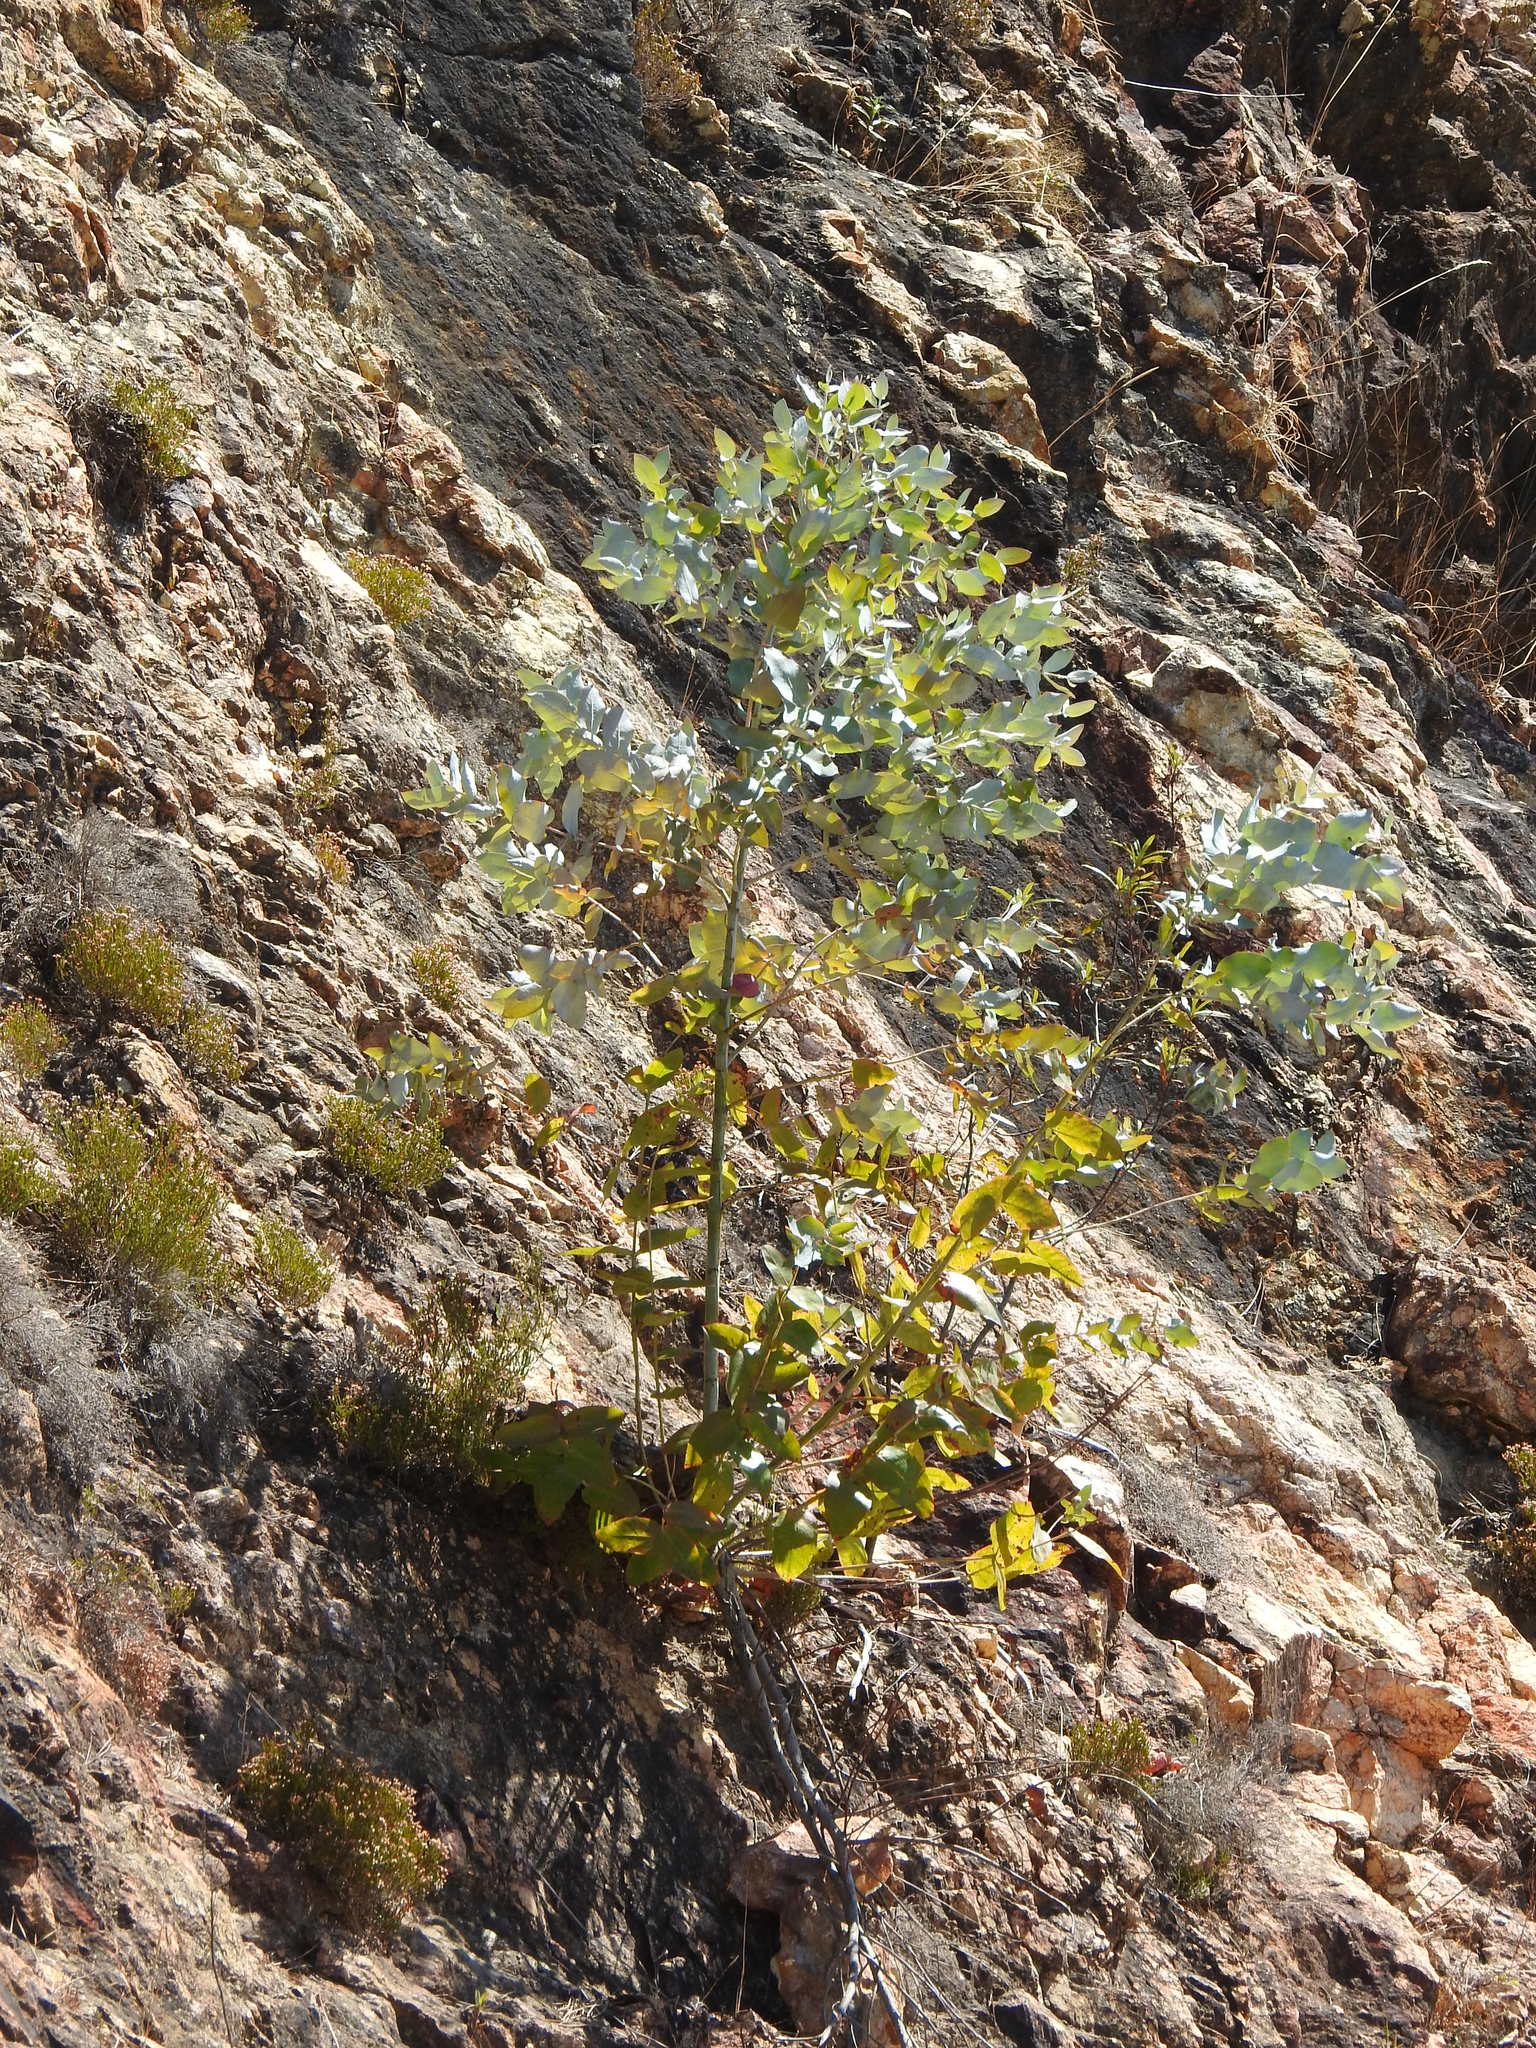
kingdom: Plantae
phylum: Tracheophyta
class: Magnoliopsida
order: Myrtales
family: Myrtaceae
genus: Eucalyptus
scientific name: Eucalyptus globulus
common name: Southern blue-gum
